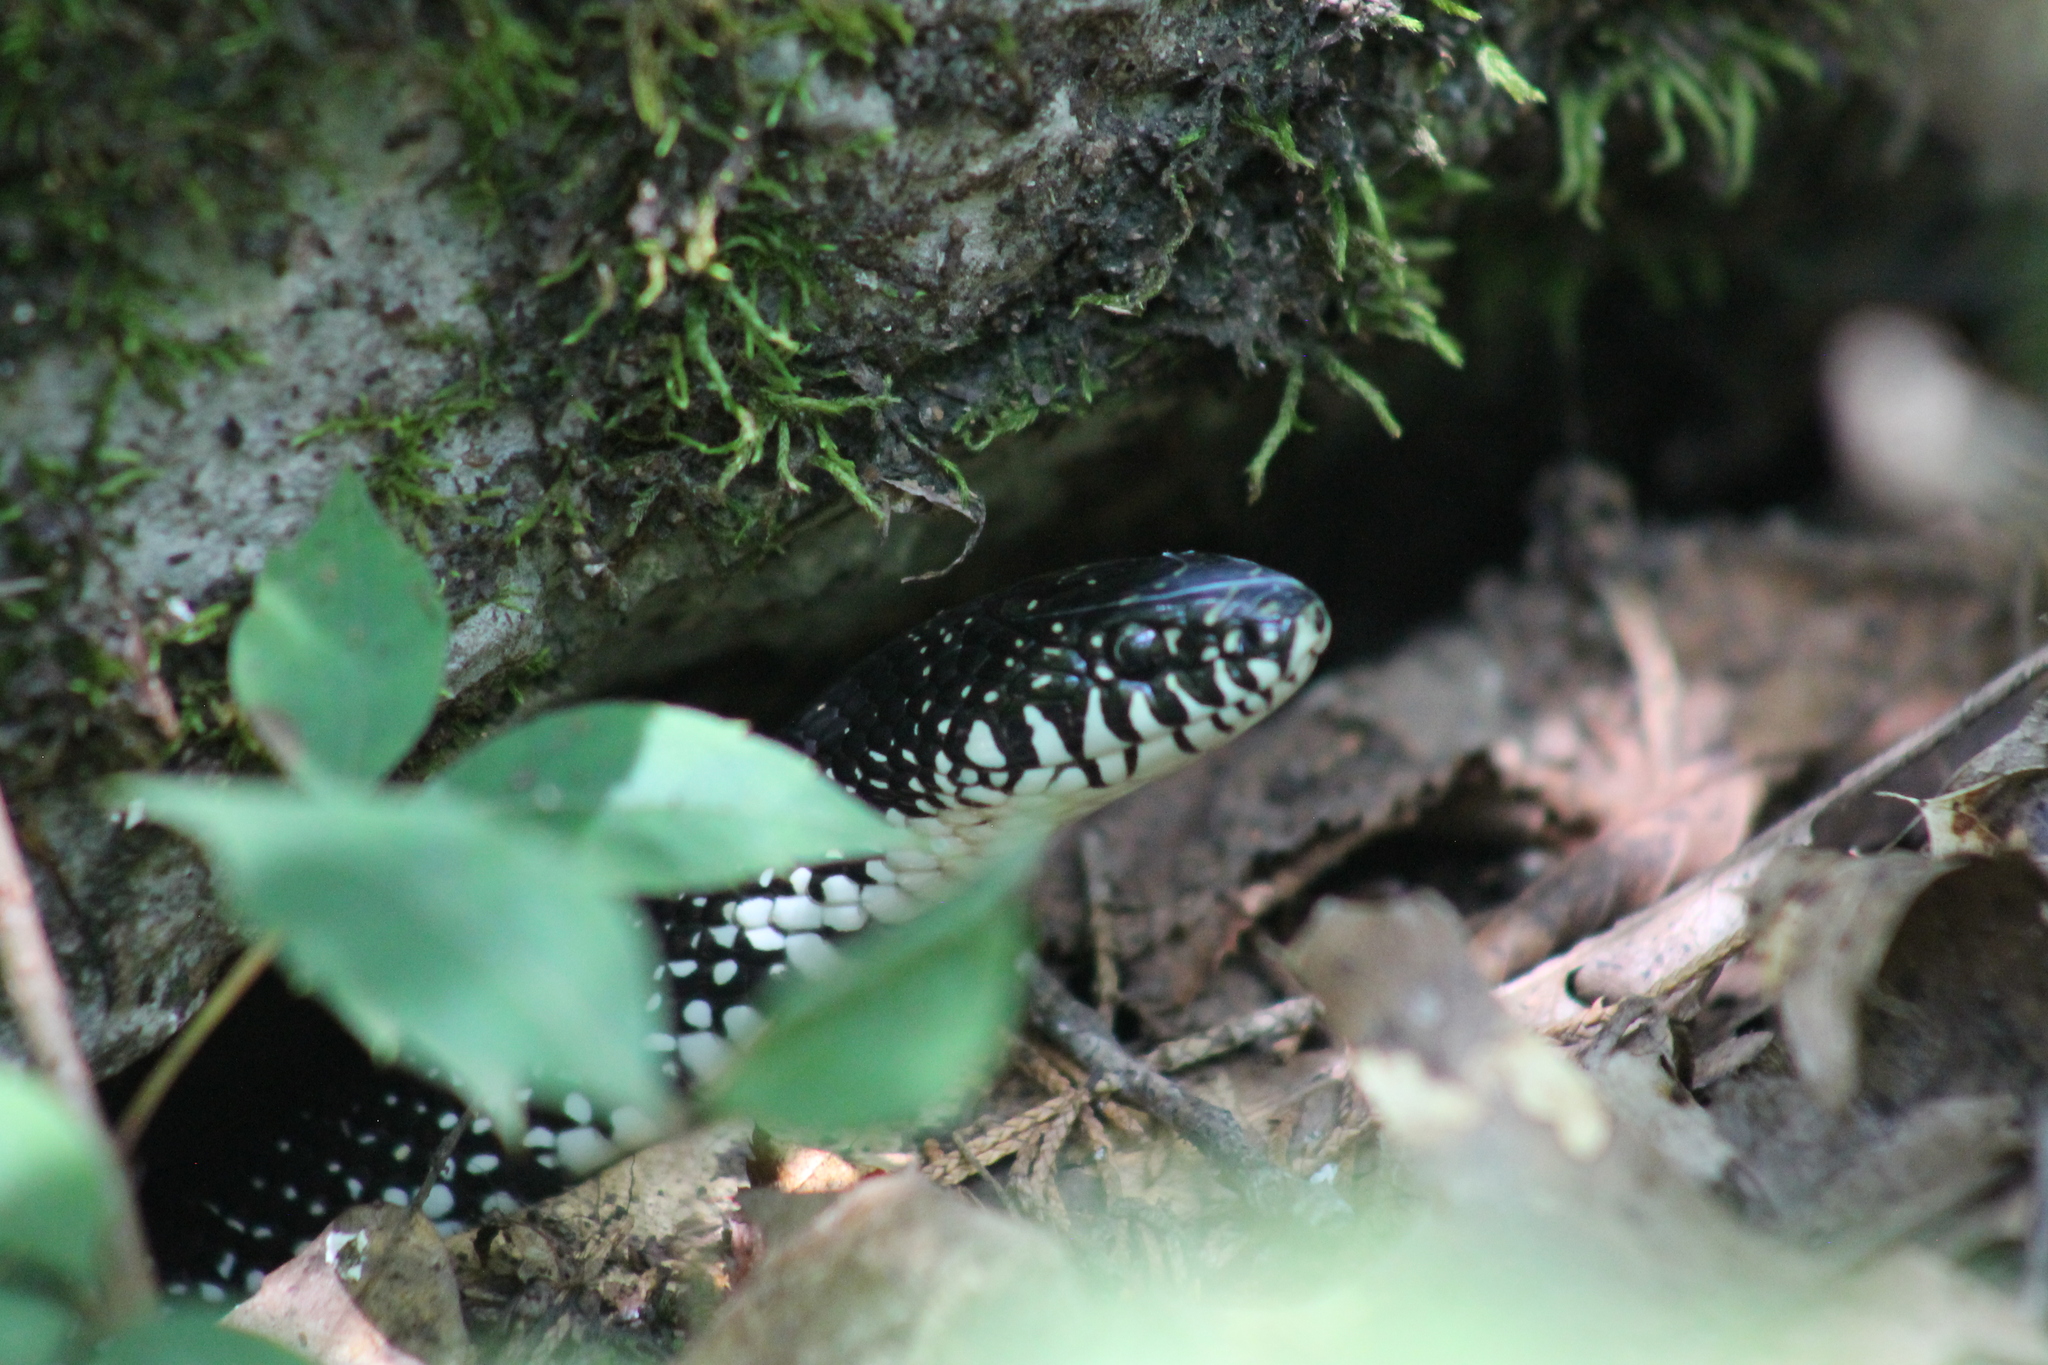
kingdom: Animalia
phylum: Chordata
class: Squamata
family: Colubridae
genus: Lampropeltis
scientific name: Lampropeltis nigra
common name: Black kingsnake
